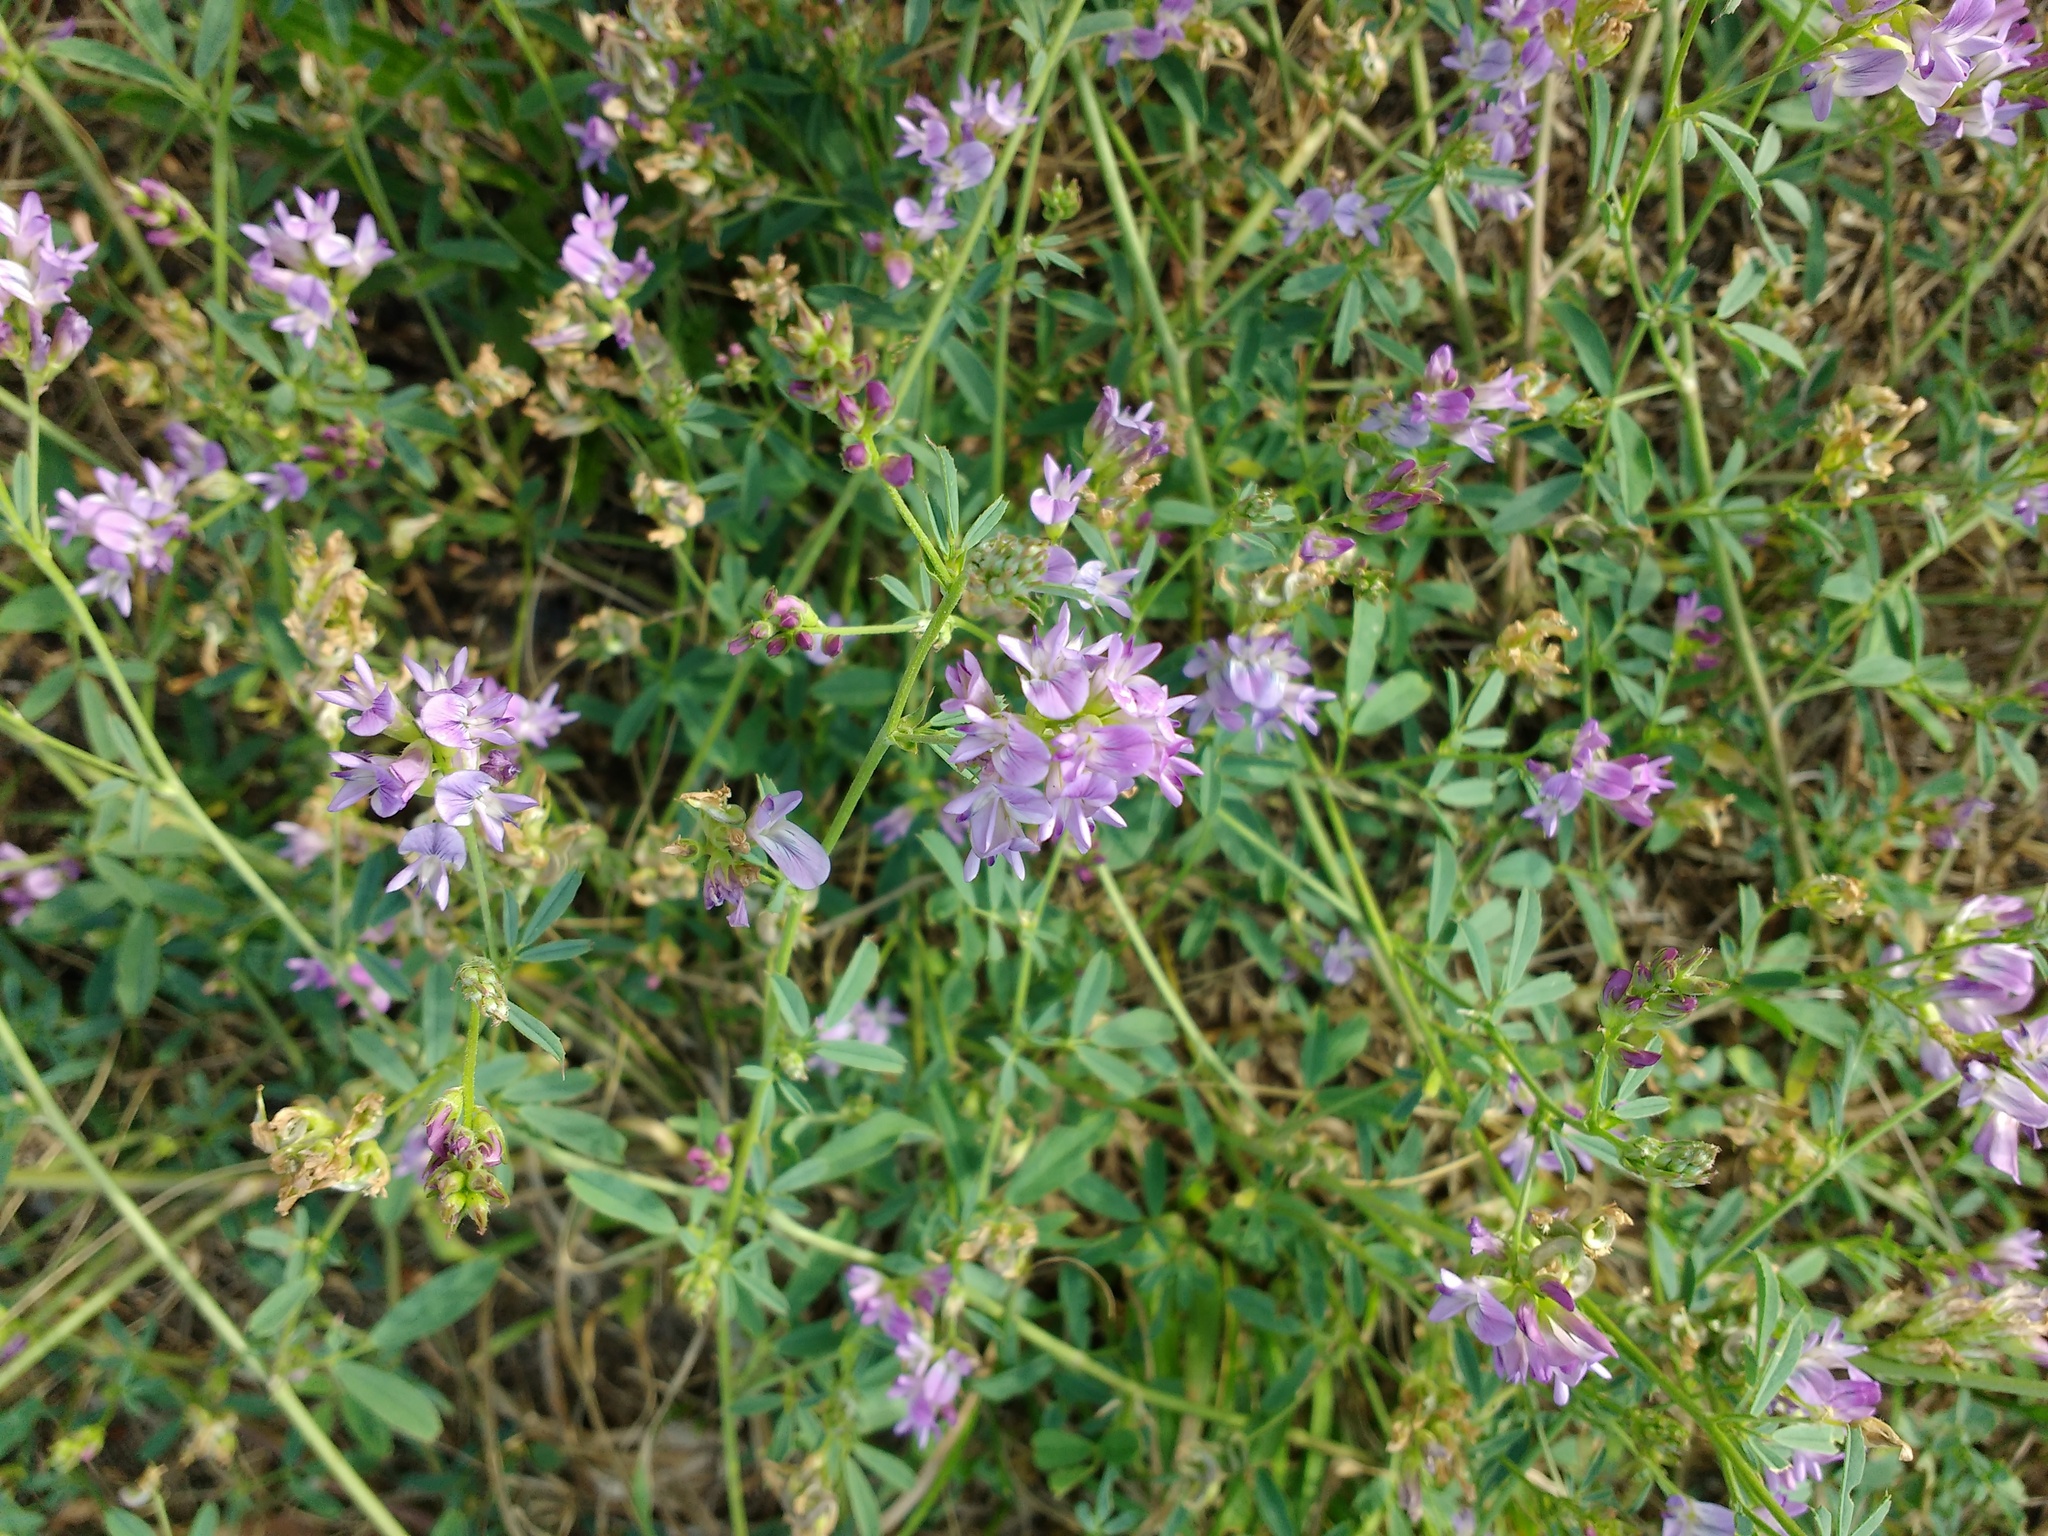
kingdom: Plantae
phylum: Tracheophyta
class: Magnoliopsida
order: Fabales
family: Fabaceae
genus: Medicago
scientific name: Medicago sativa
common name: Alfalfa
